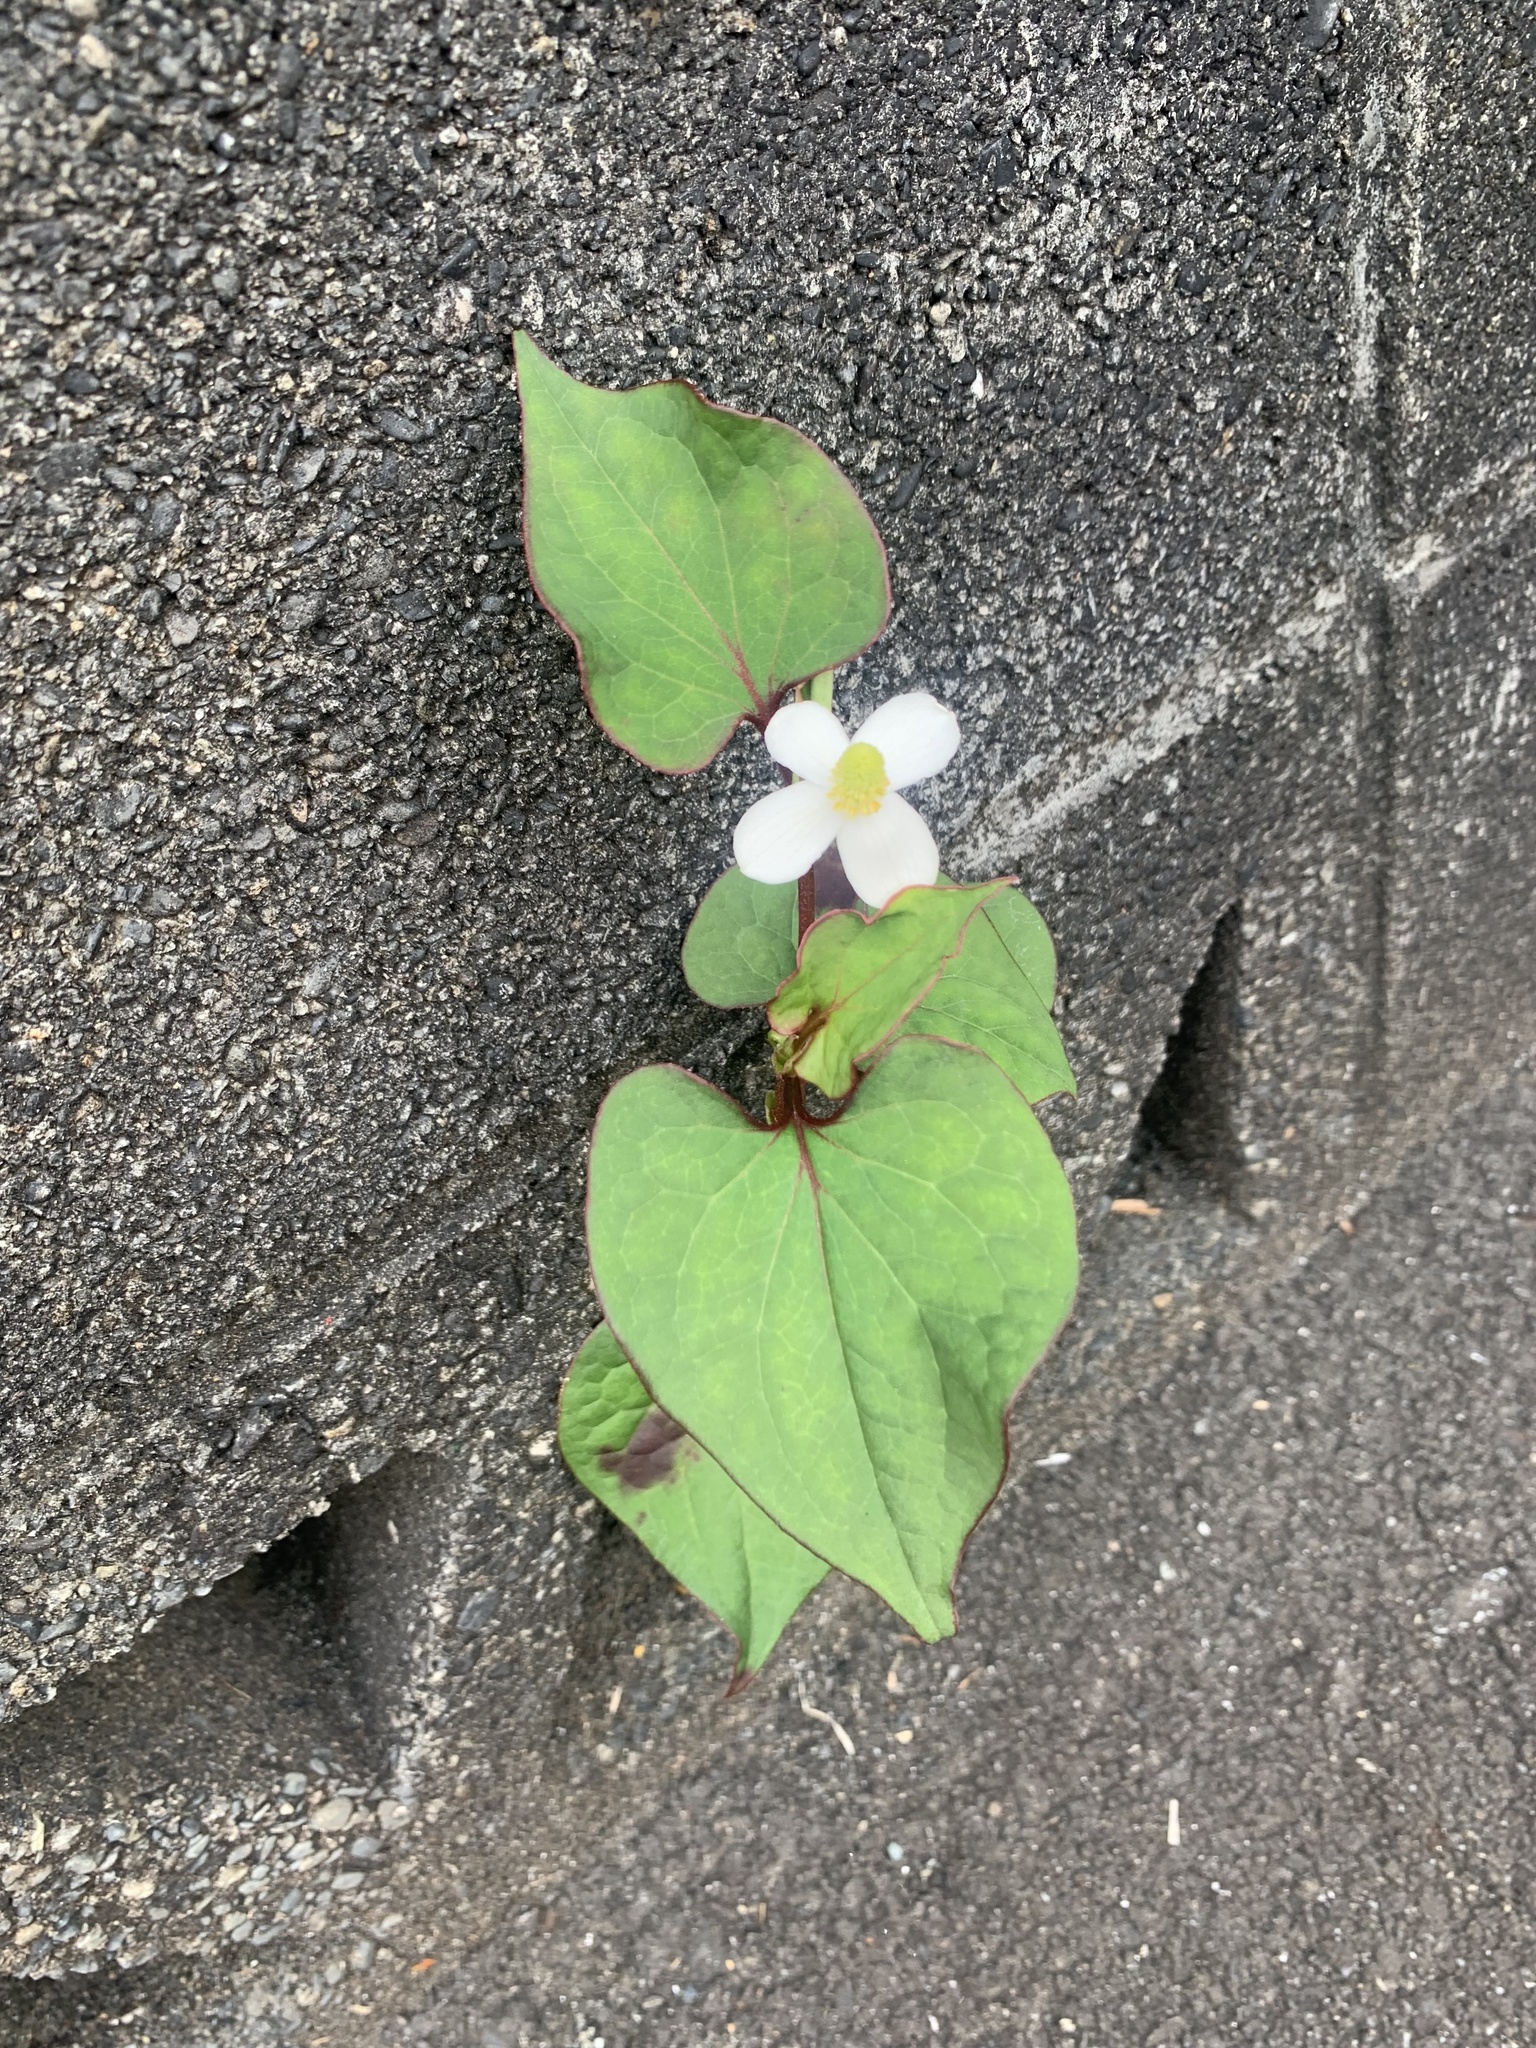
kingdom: Plantae
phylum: Tracheophyta
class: Magnoliopsida
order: Piperales
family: Saururaceae
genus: Houttuynia
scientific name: Houttuynia cordata
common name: Chameleon
